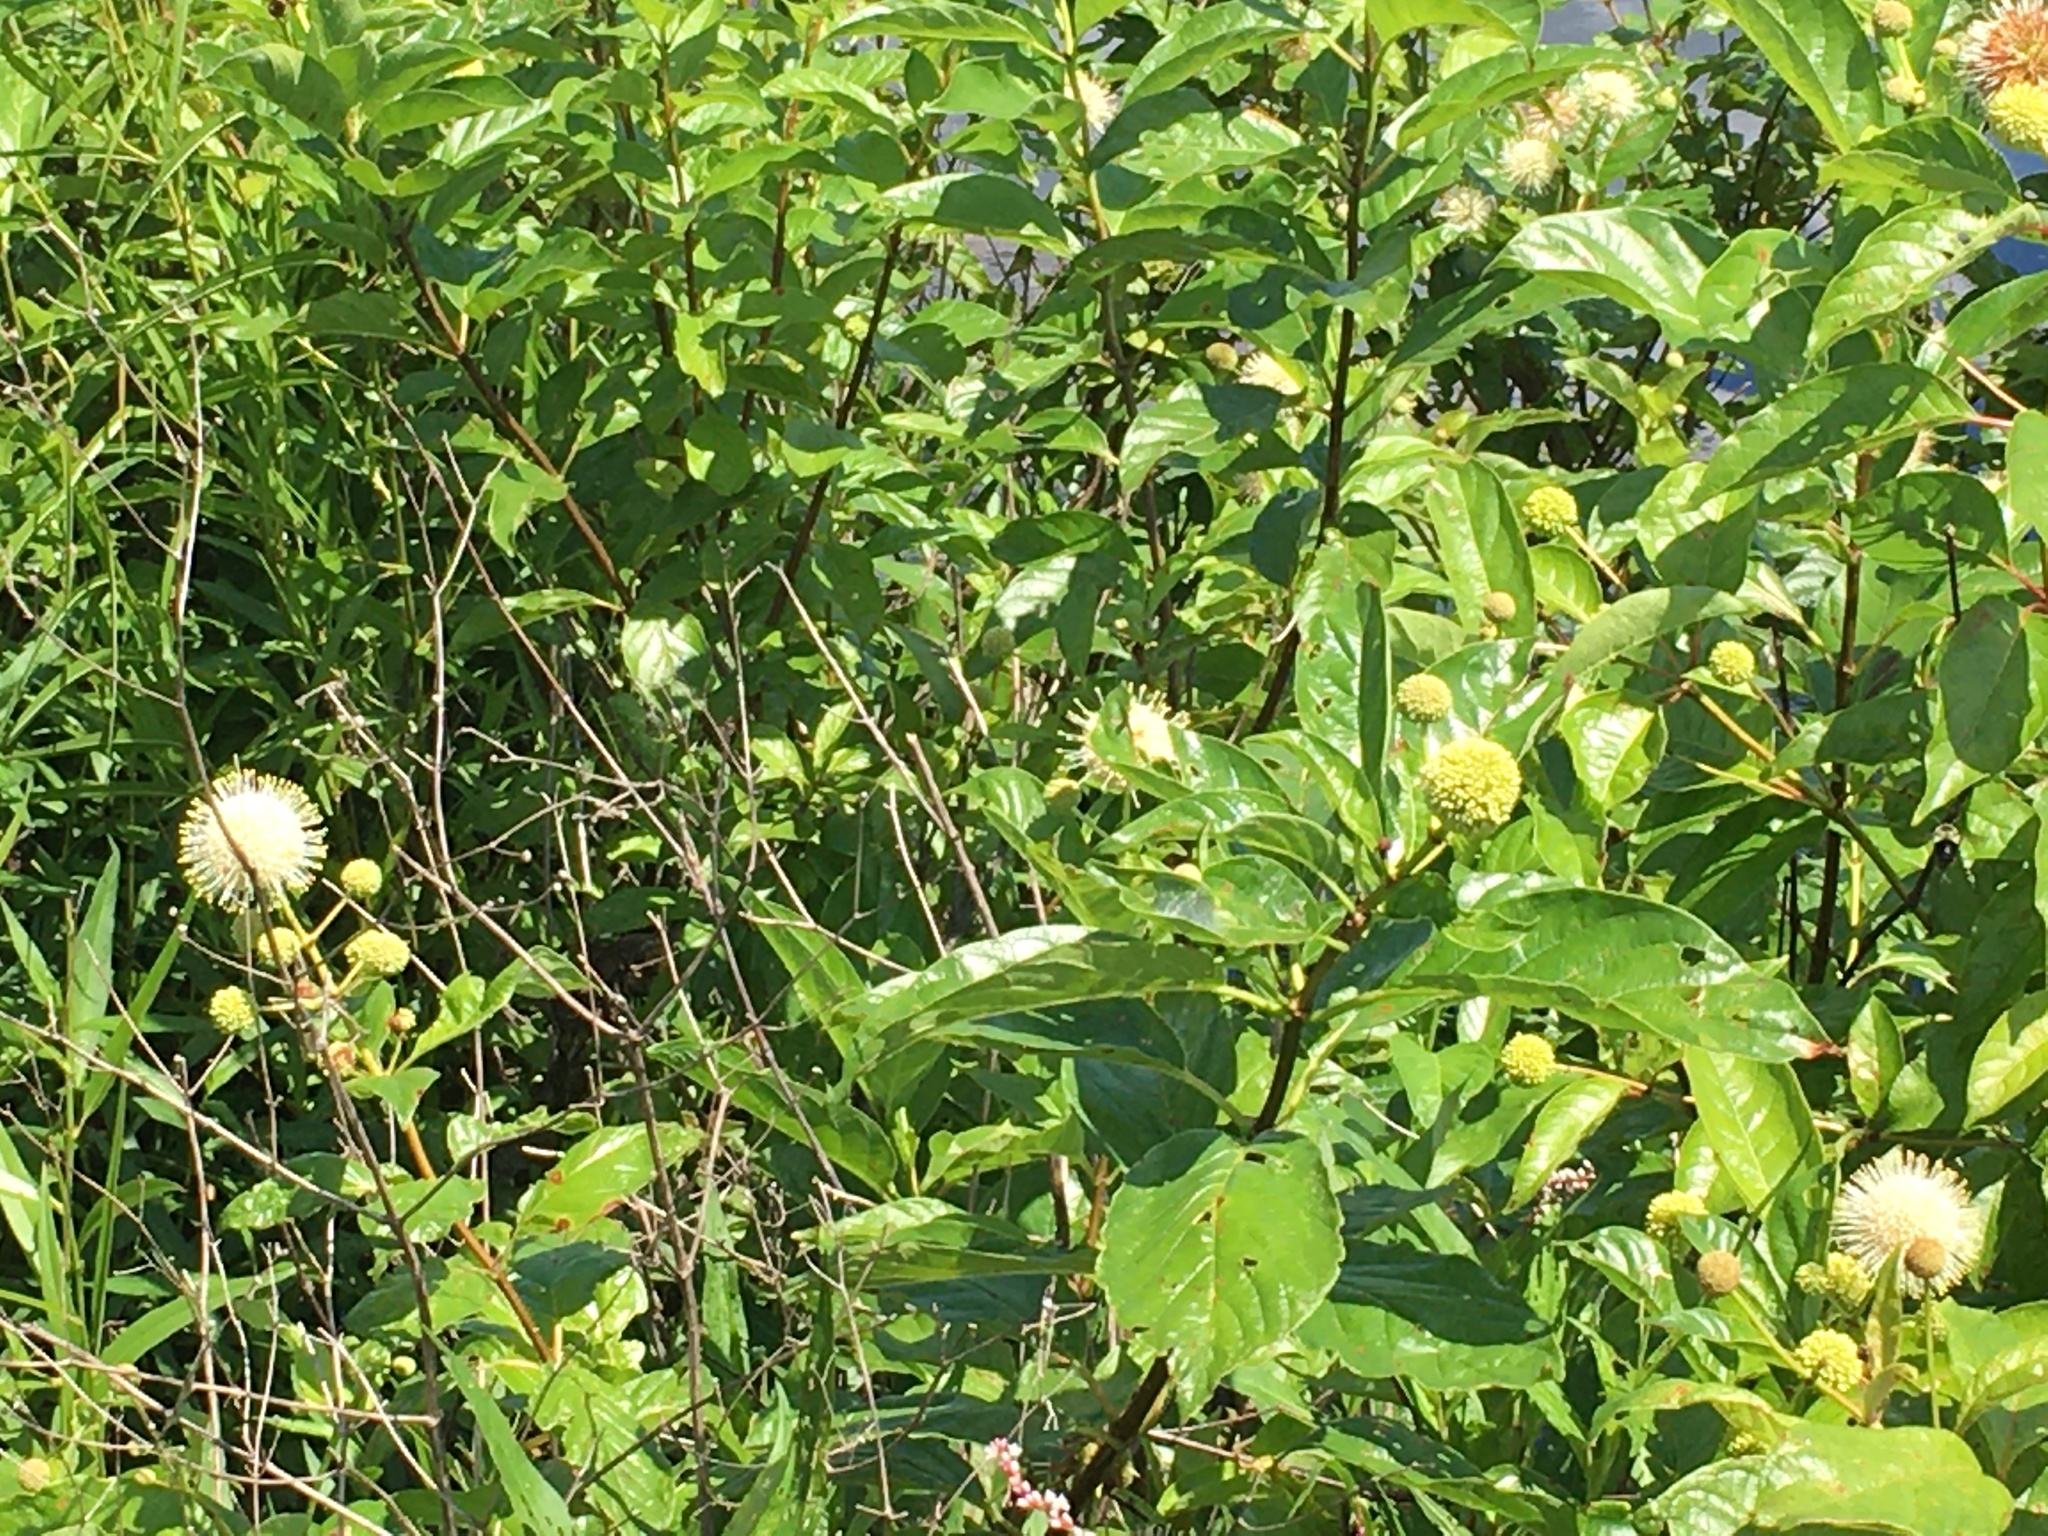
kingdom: Plantae
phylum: Tracheophyta
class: Magnoliopsida
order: Gentianales
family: Rubiaceae
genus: Cephalanthus
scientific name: Cephalanthus occidentalis
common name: Button-willow
